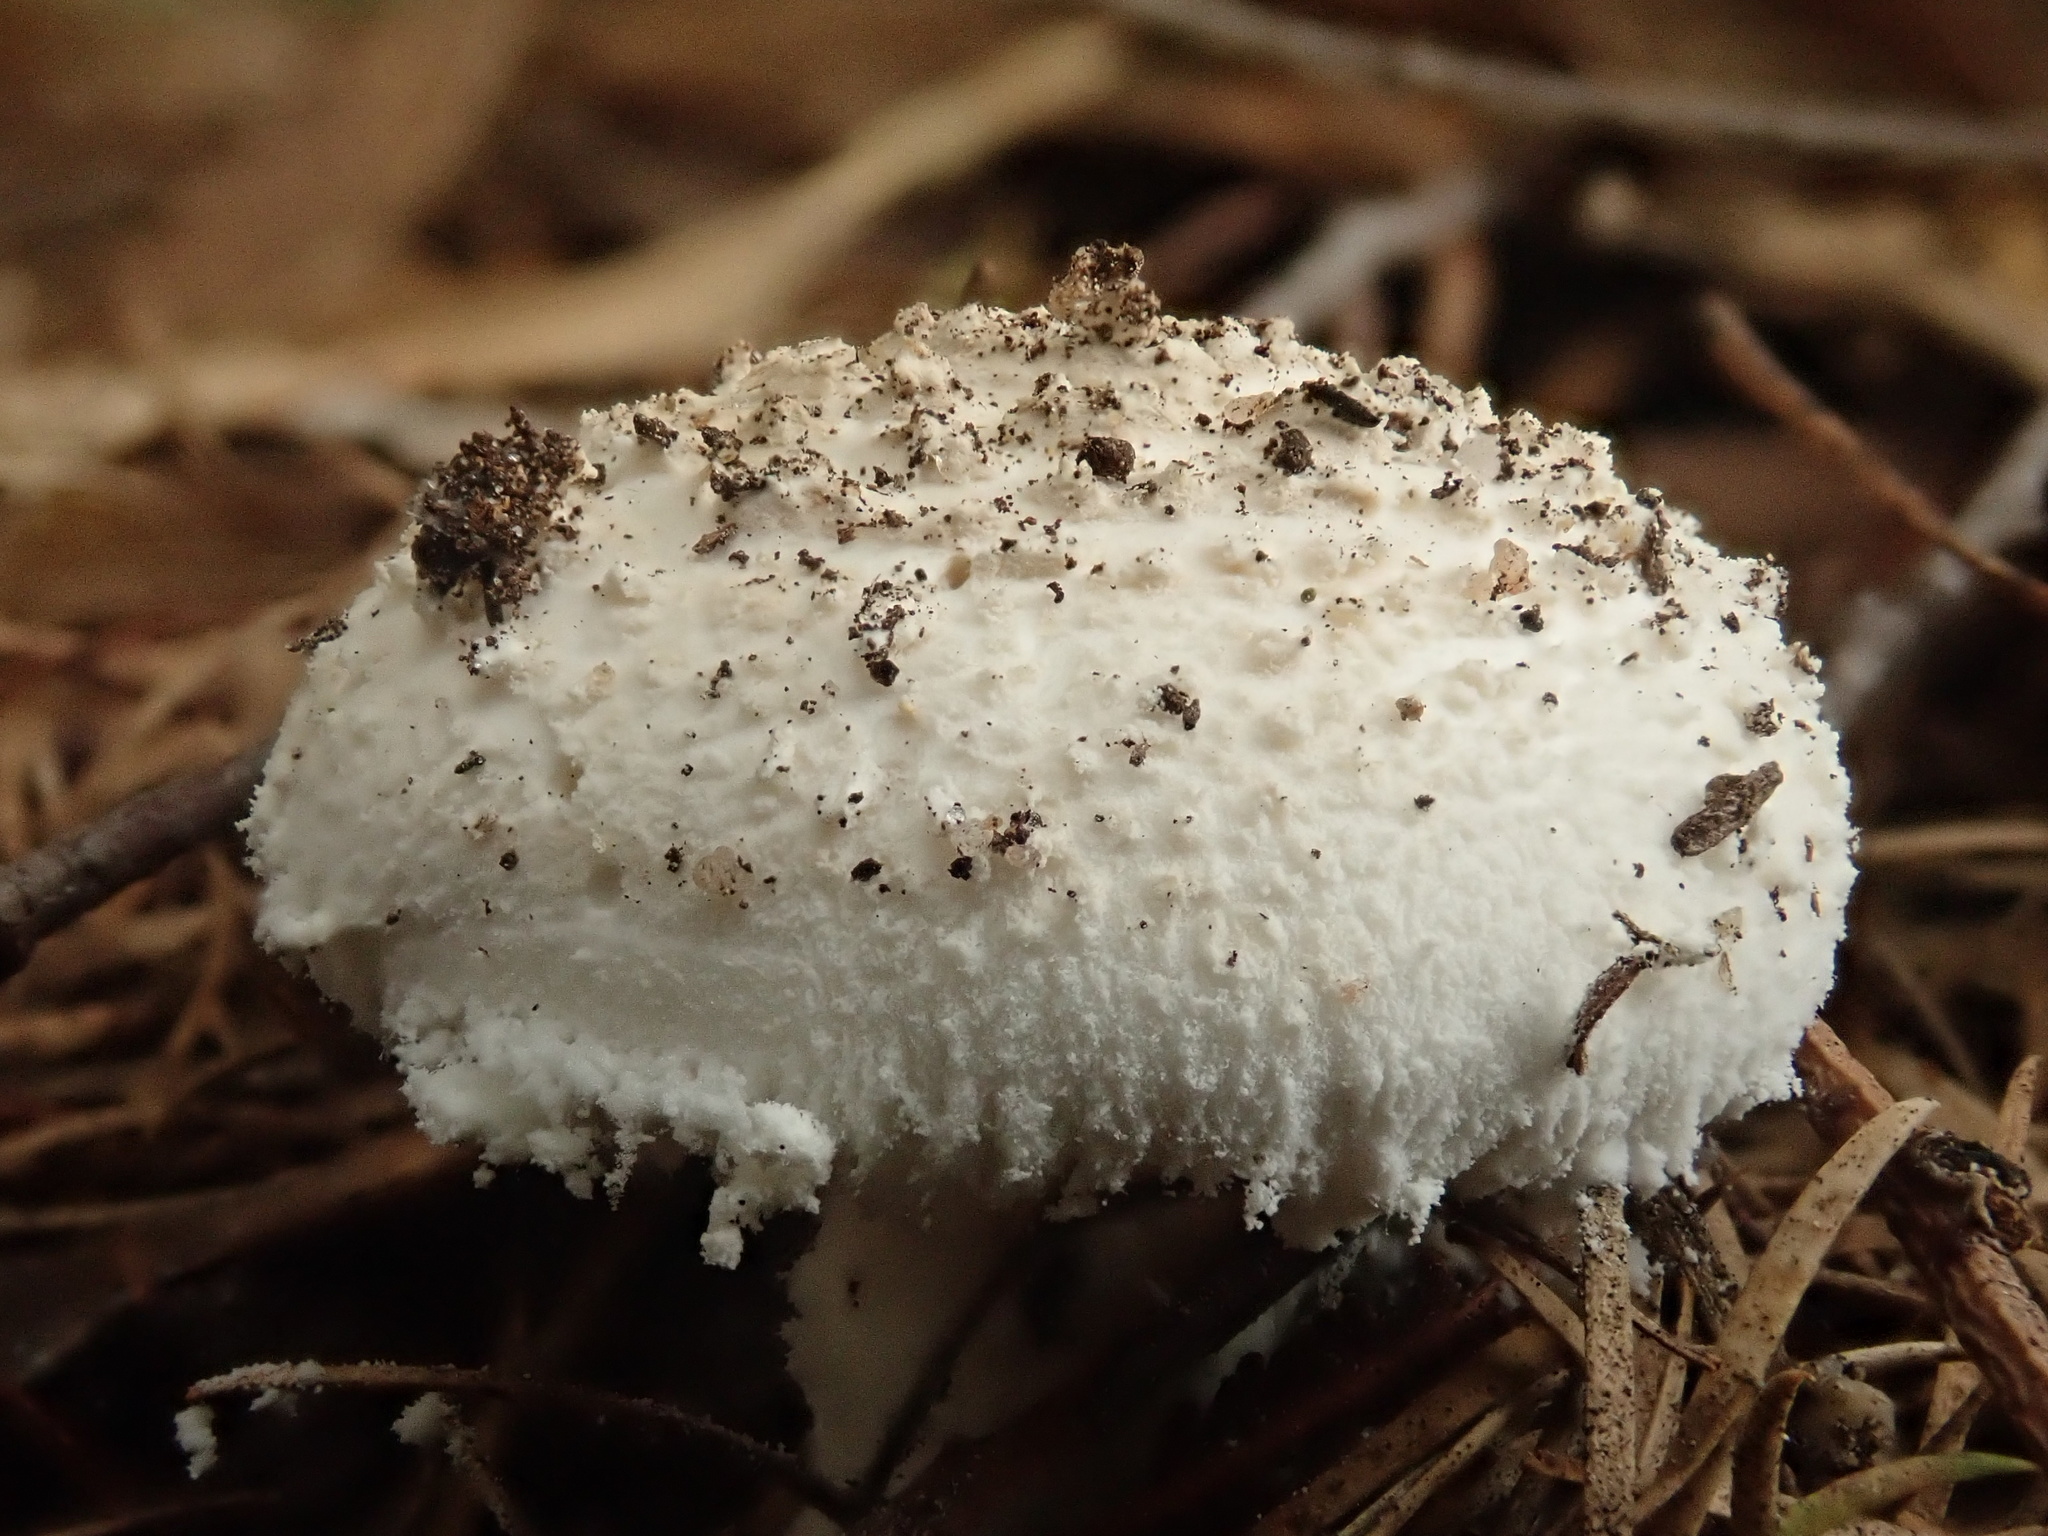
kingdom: Fungi
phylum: Basidiomycota
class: Agaricomycetes
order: Agaricales
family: Amanitaceae
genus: Amanita
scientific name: Amanita farinacea
